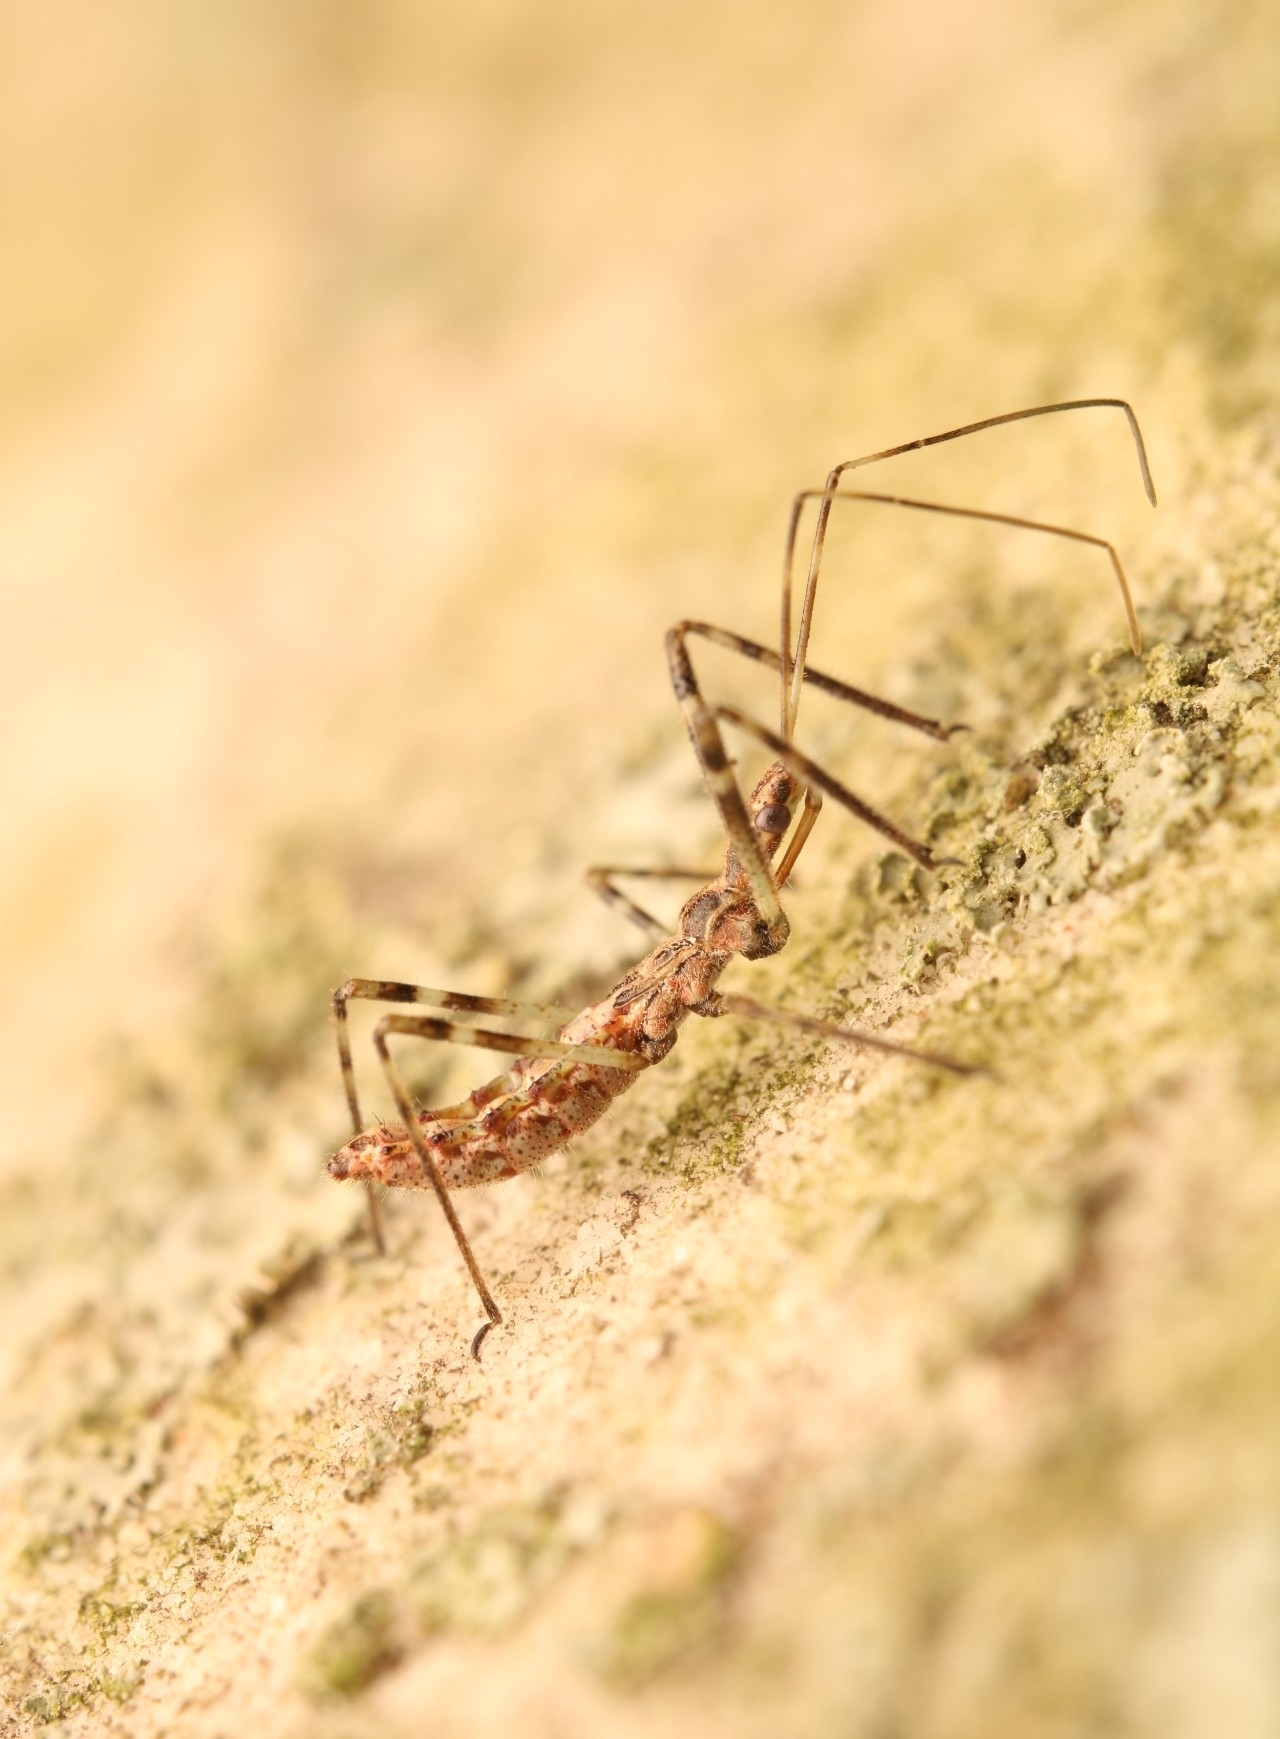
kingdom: Animalia
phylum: Arthropoda
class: Insecta
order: Hemiptera
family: Reduviidae
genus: Zelus
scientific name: Zelus tetracanthus
